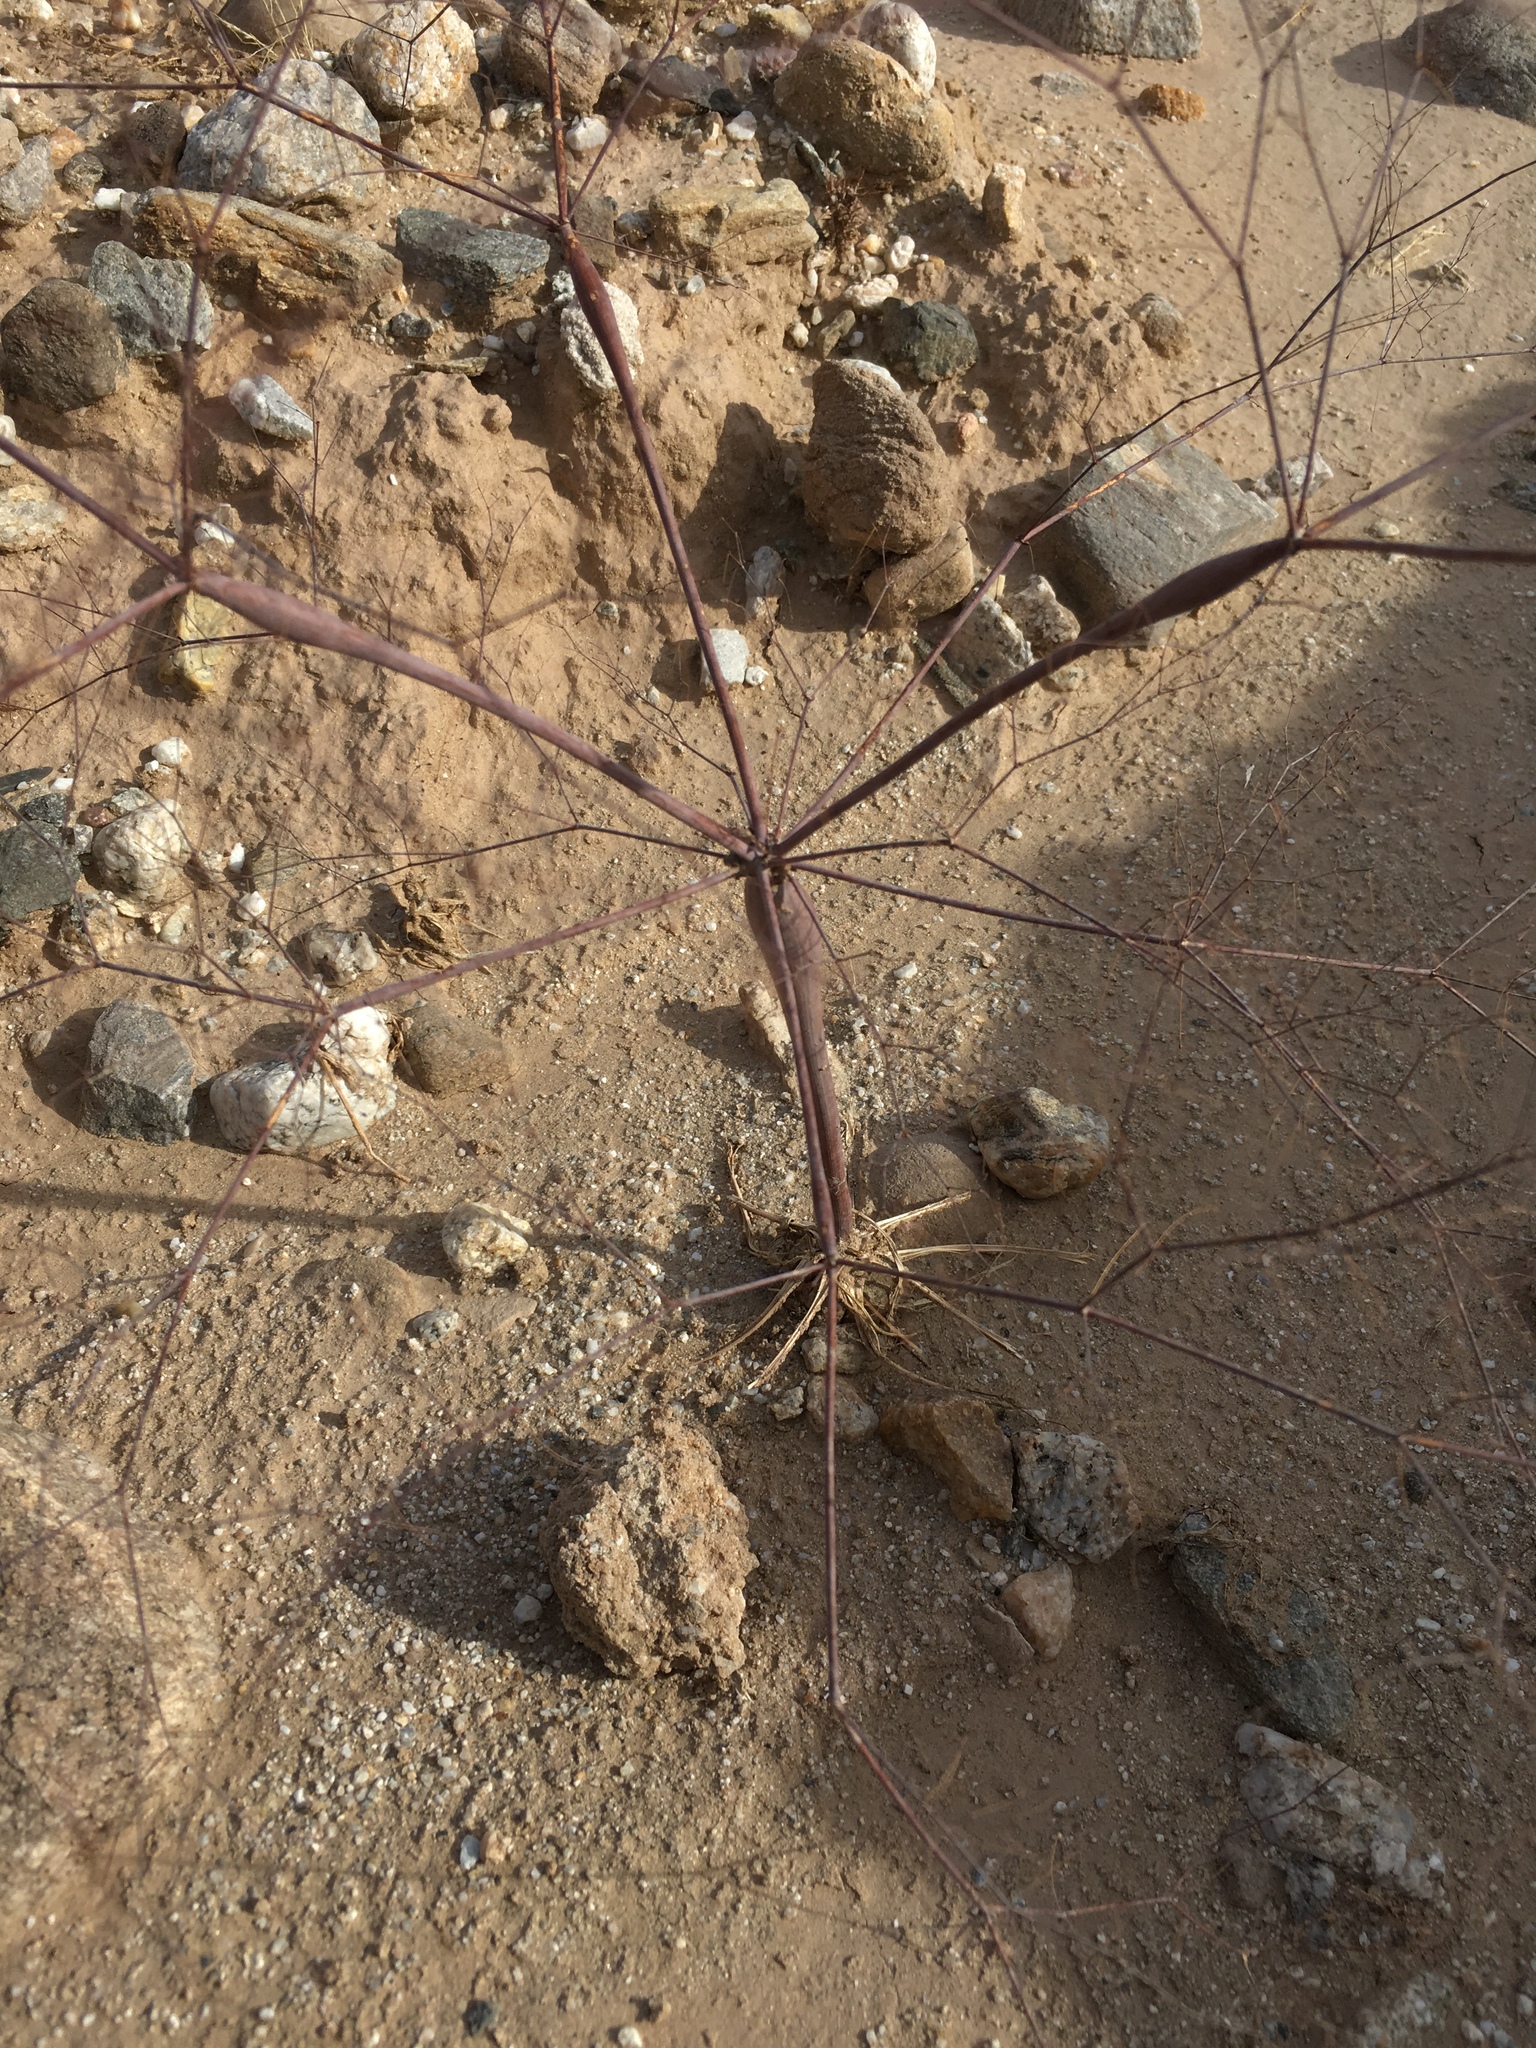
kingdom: Plantae
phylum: Tracheophyta
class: Magnoliopsida
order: Caryophyllales
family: Polygonaceae
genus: Eriogonum
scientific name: Eriogonum trichopes
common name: Little desert trumpet
